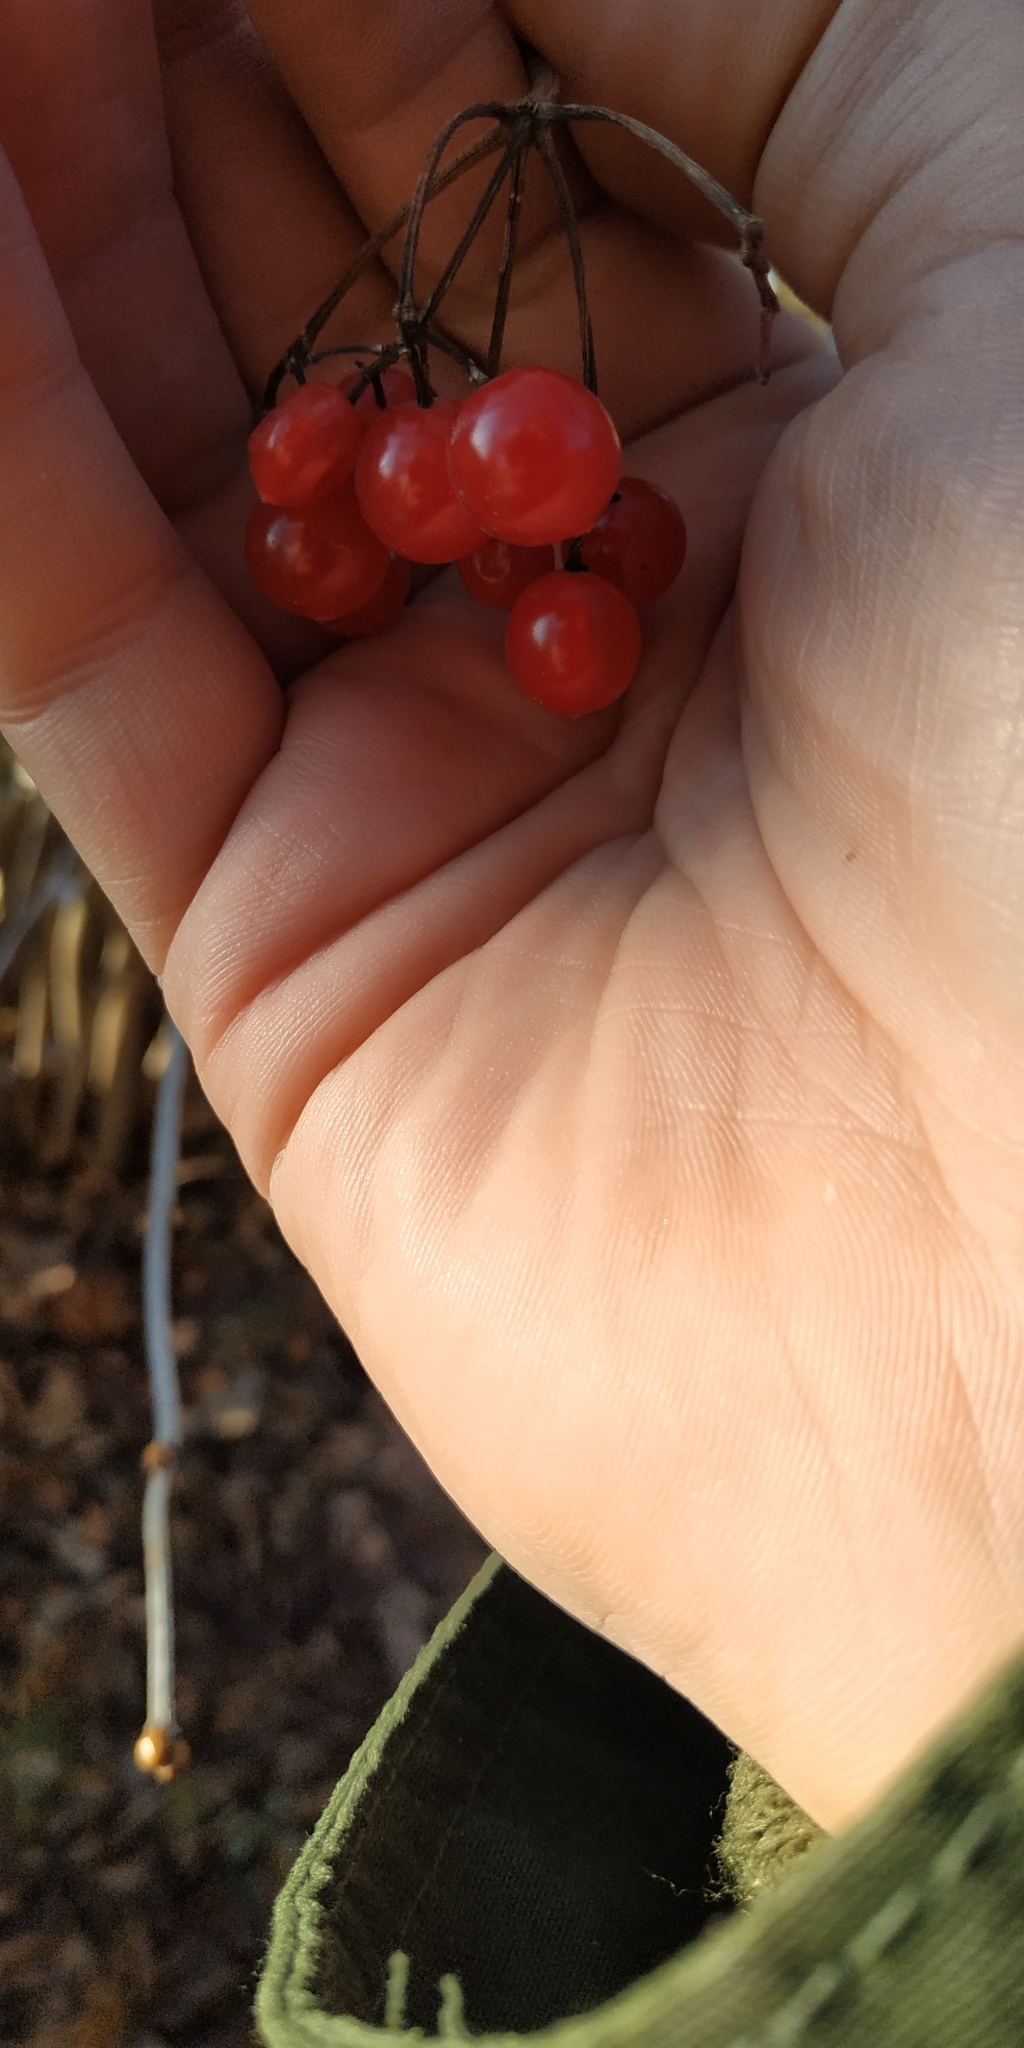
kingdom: Plantae
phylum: Tracheophyta
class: Magnoliopsida
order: Dipsacales
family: Viburnaceae
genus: Viburnum
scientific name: Viburnum opulus
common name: Guelder-rose
